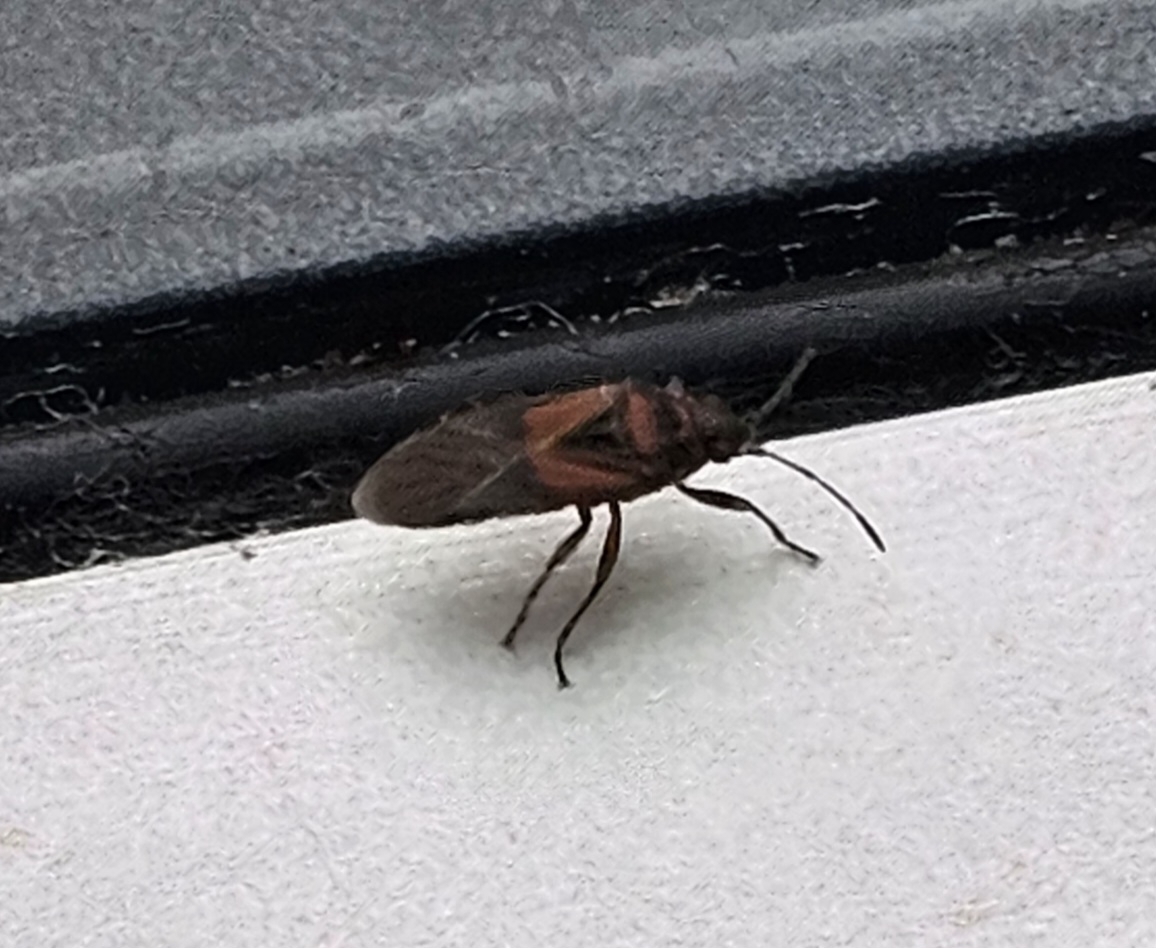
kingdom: Animalia
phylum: Arthropoda
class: Insecta
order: Hemiptera
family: Lygaeidae
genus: Arocatus
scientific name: Arocatus melanocephalus
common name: Lygaeid bug
